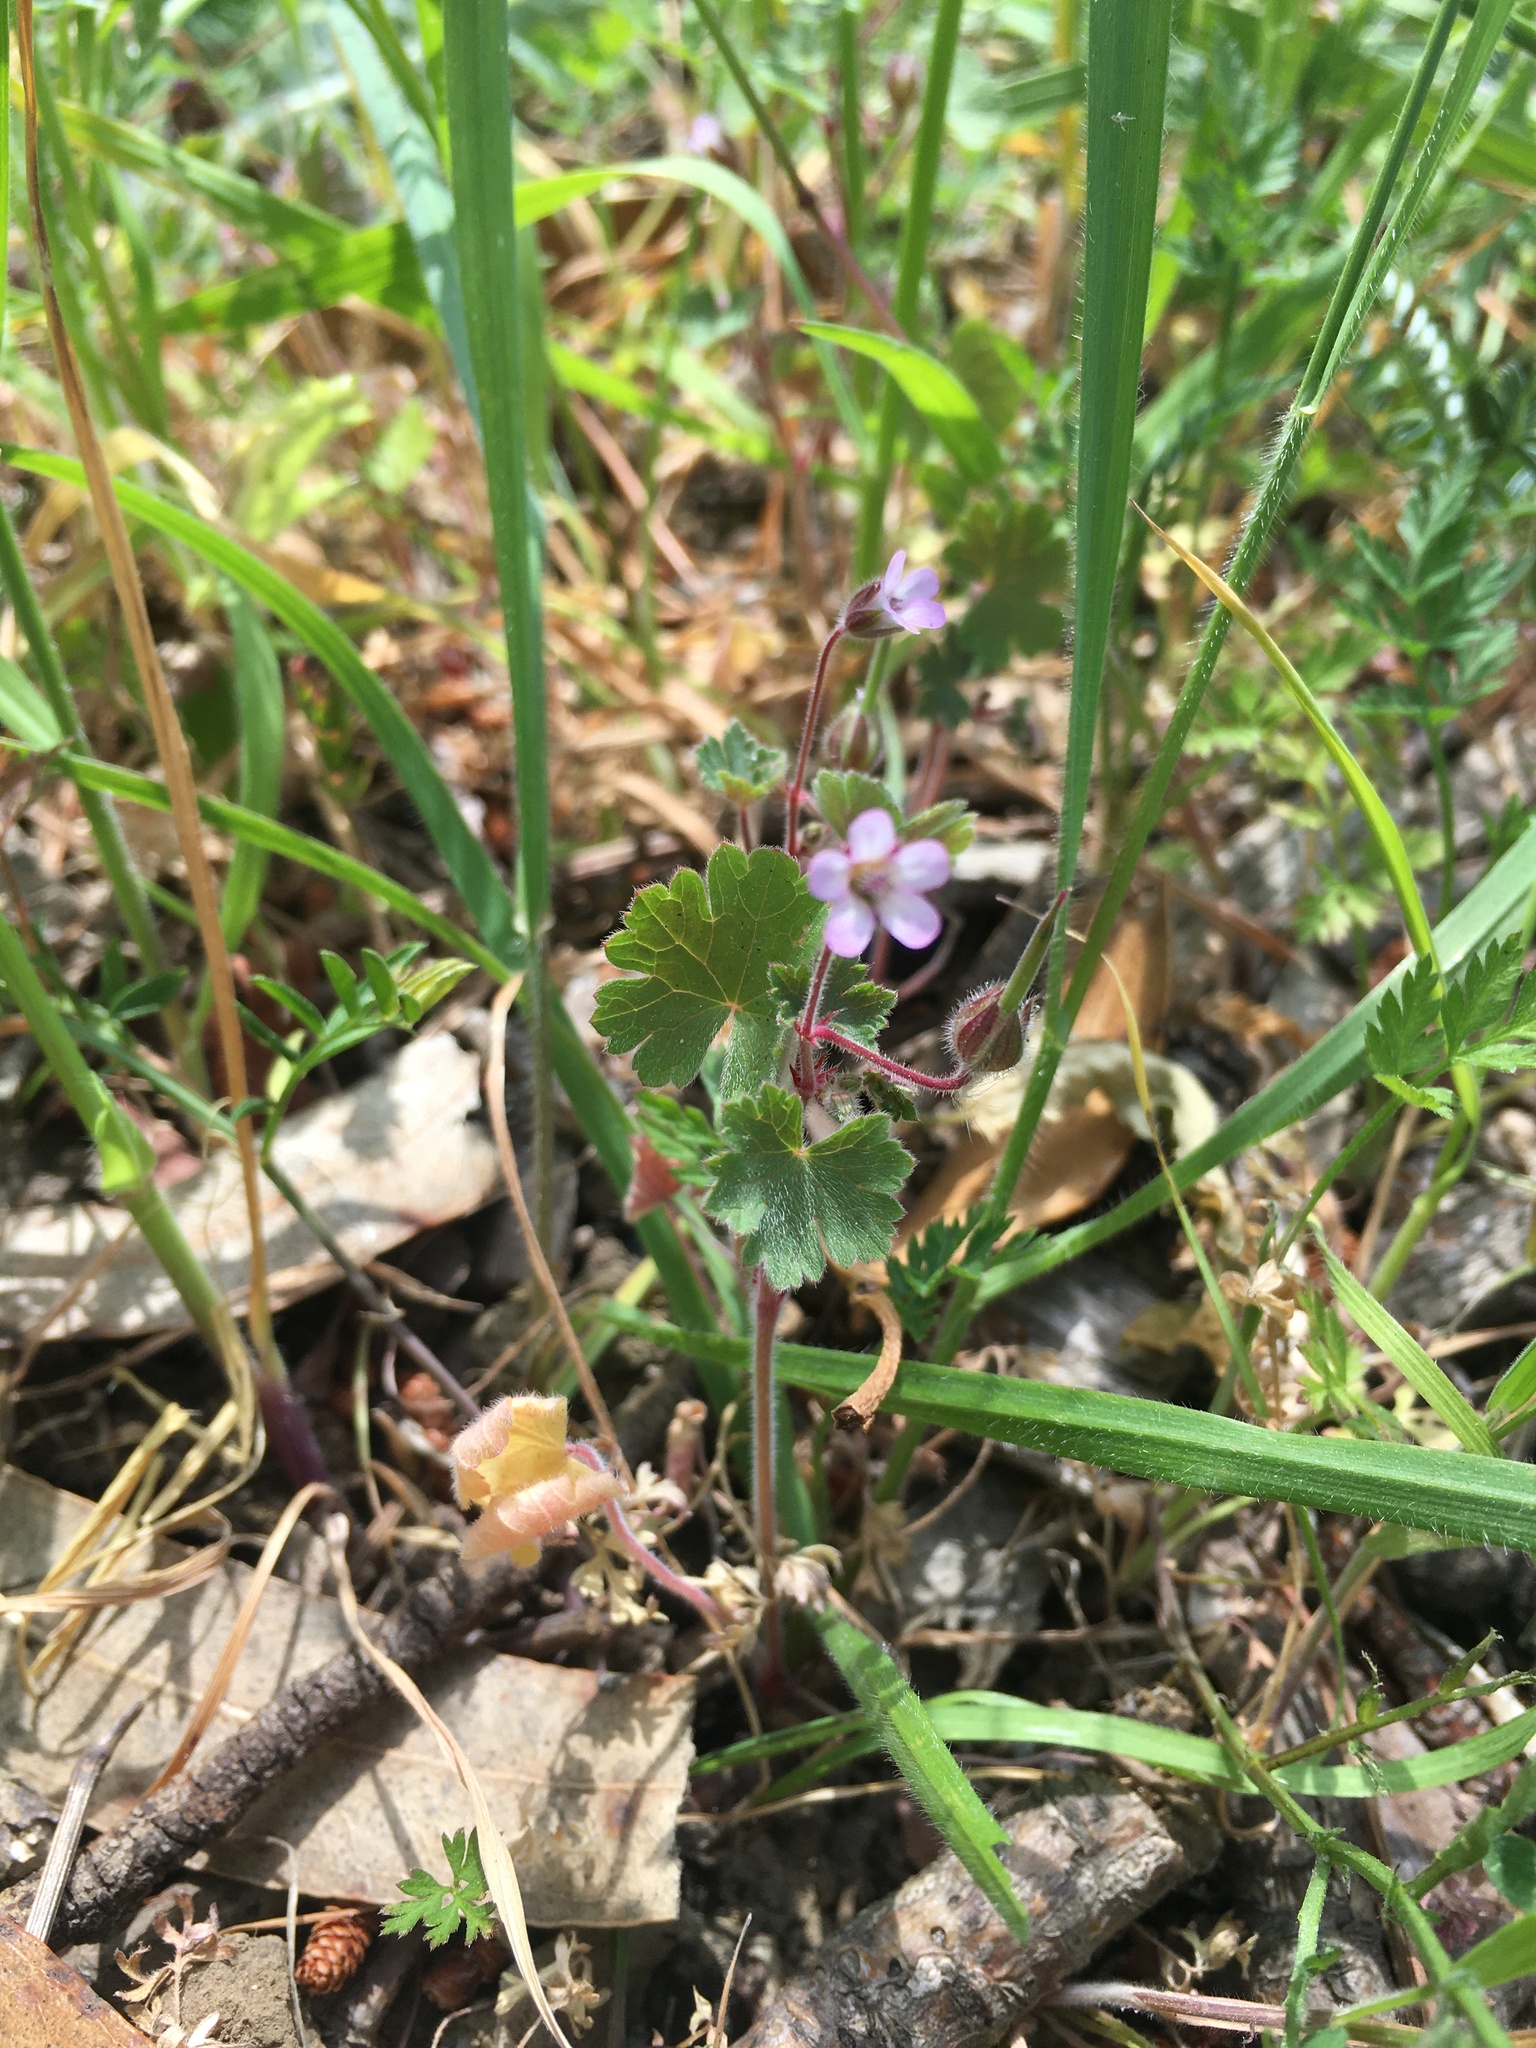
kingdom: Plantae
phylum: Tracheophyta
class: Magnoliopsida
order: Geraniales
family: Geraniaceae
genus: Geranium
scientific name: Geranium rotundifolium
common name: Round-leaved crane's-bill
